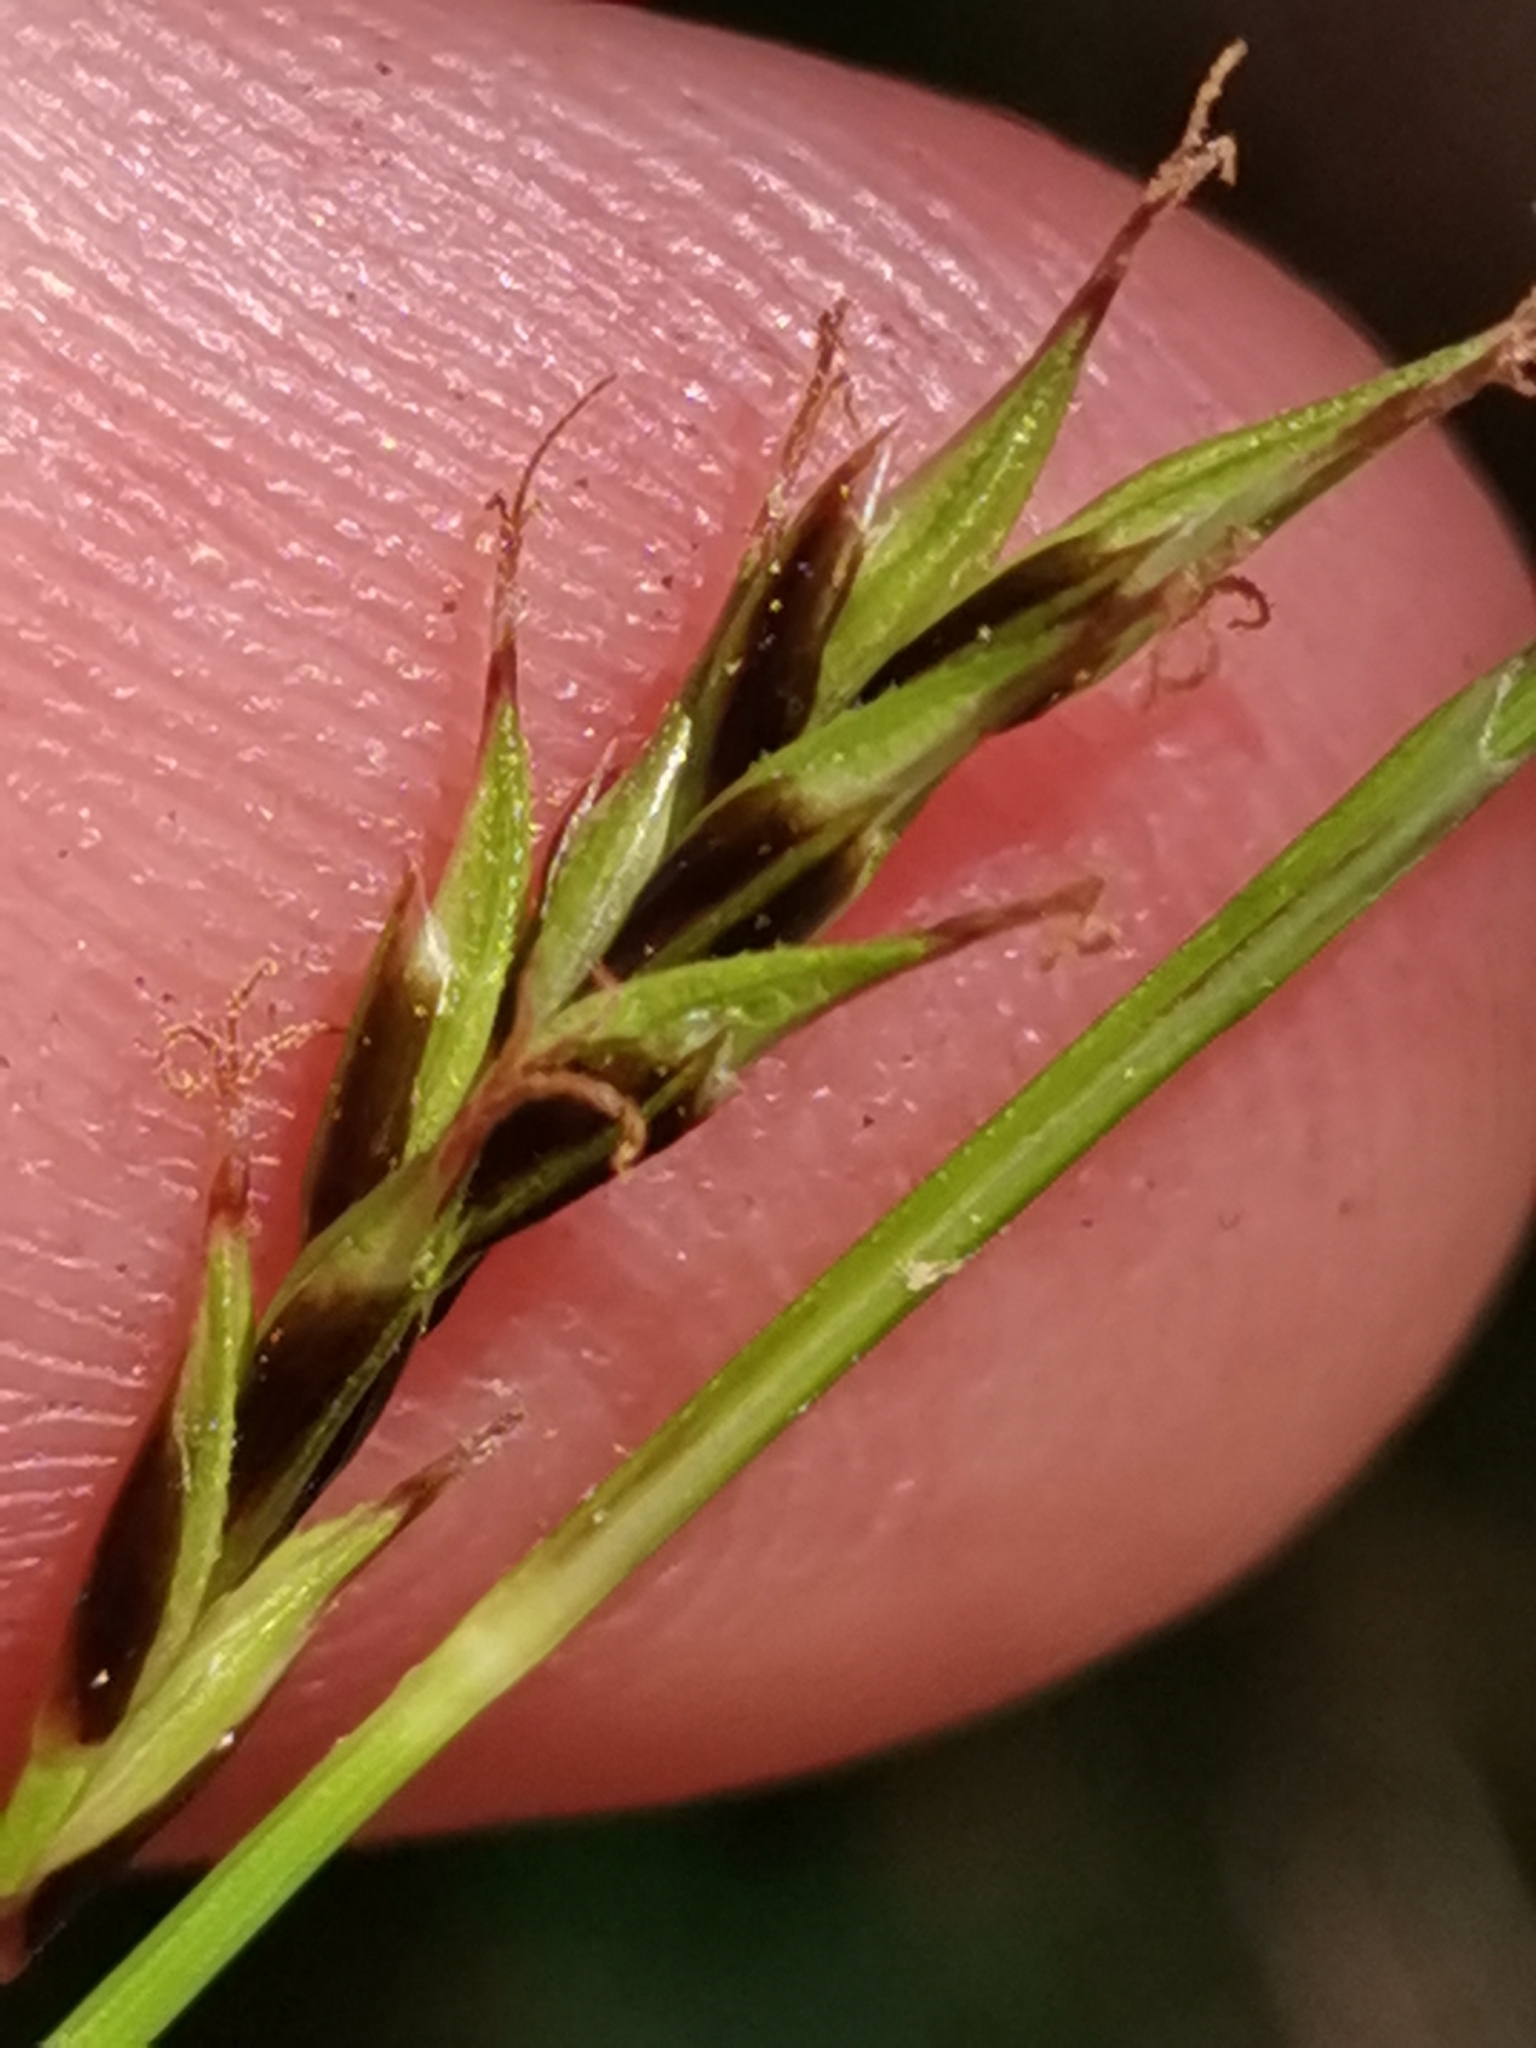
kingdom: Plantae
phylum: Tracheophyta
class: Liliopsida
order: Poales
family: Cyperaceae
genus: Carex
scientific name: Carex sempervirens
